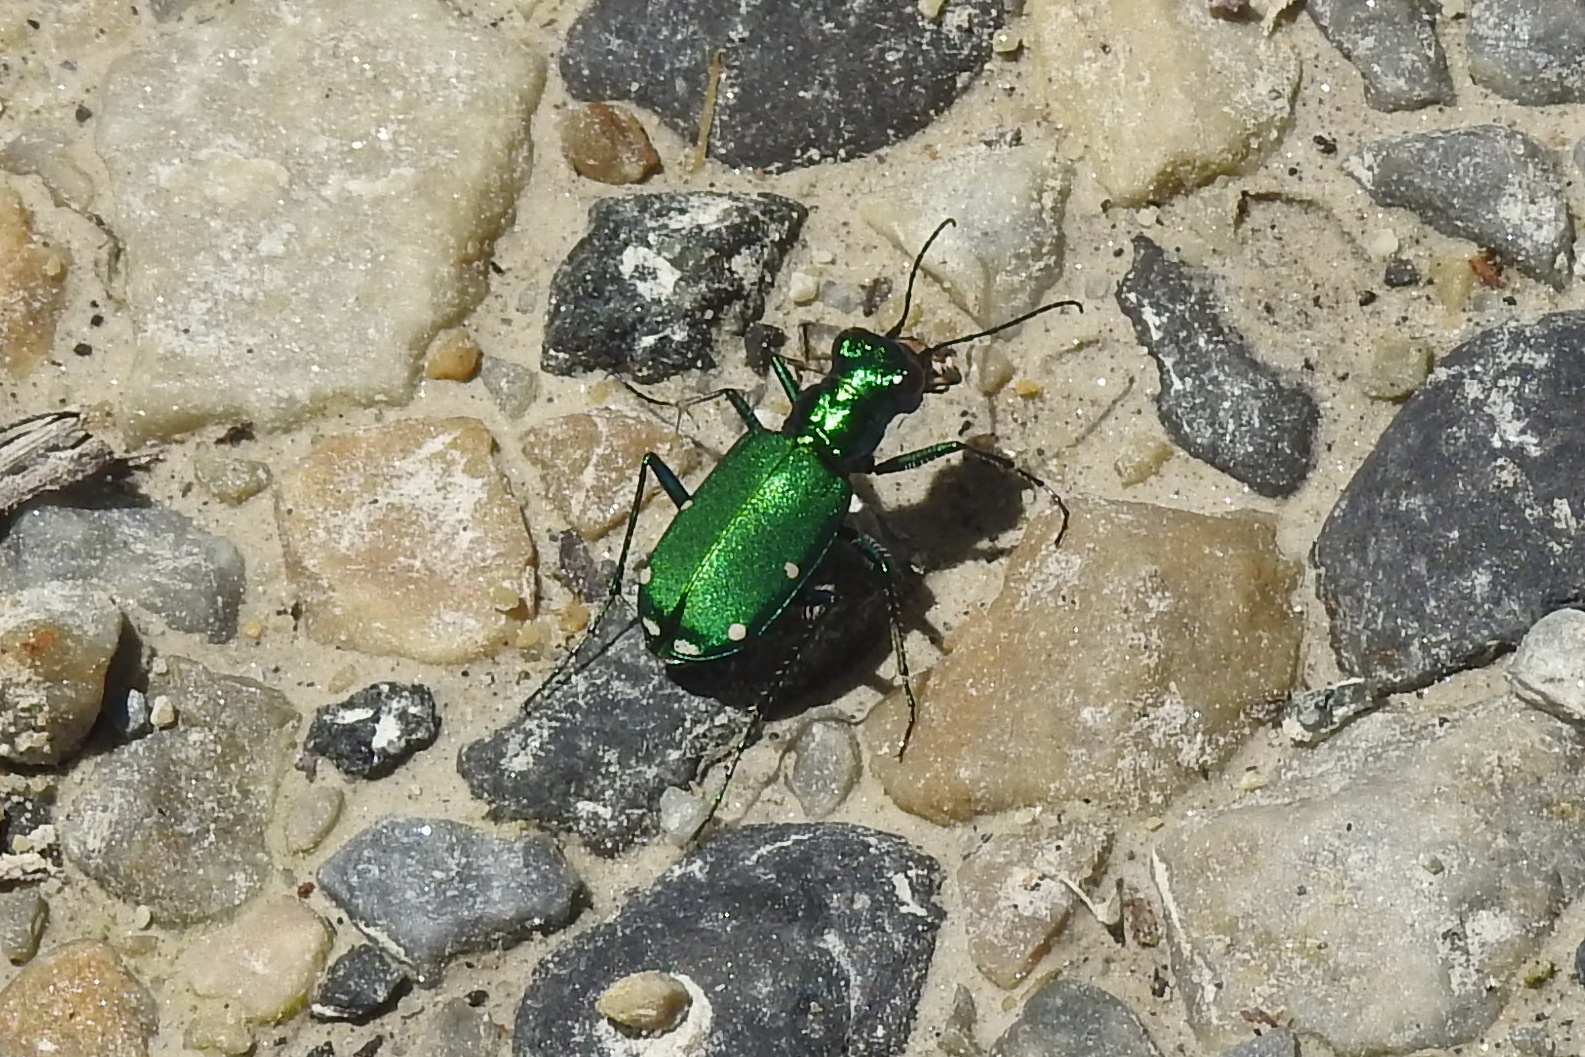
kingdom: Animalia
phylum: Arthropoda
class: Insecta
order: Coleoptera
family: Carabidae
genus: Cicindela
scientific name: Cicindela sexguttata
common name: Six-spotted tiger beetle
